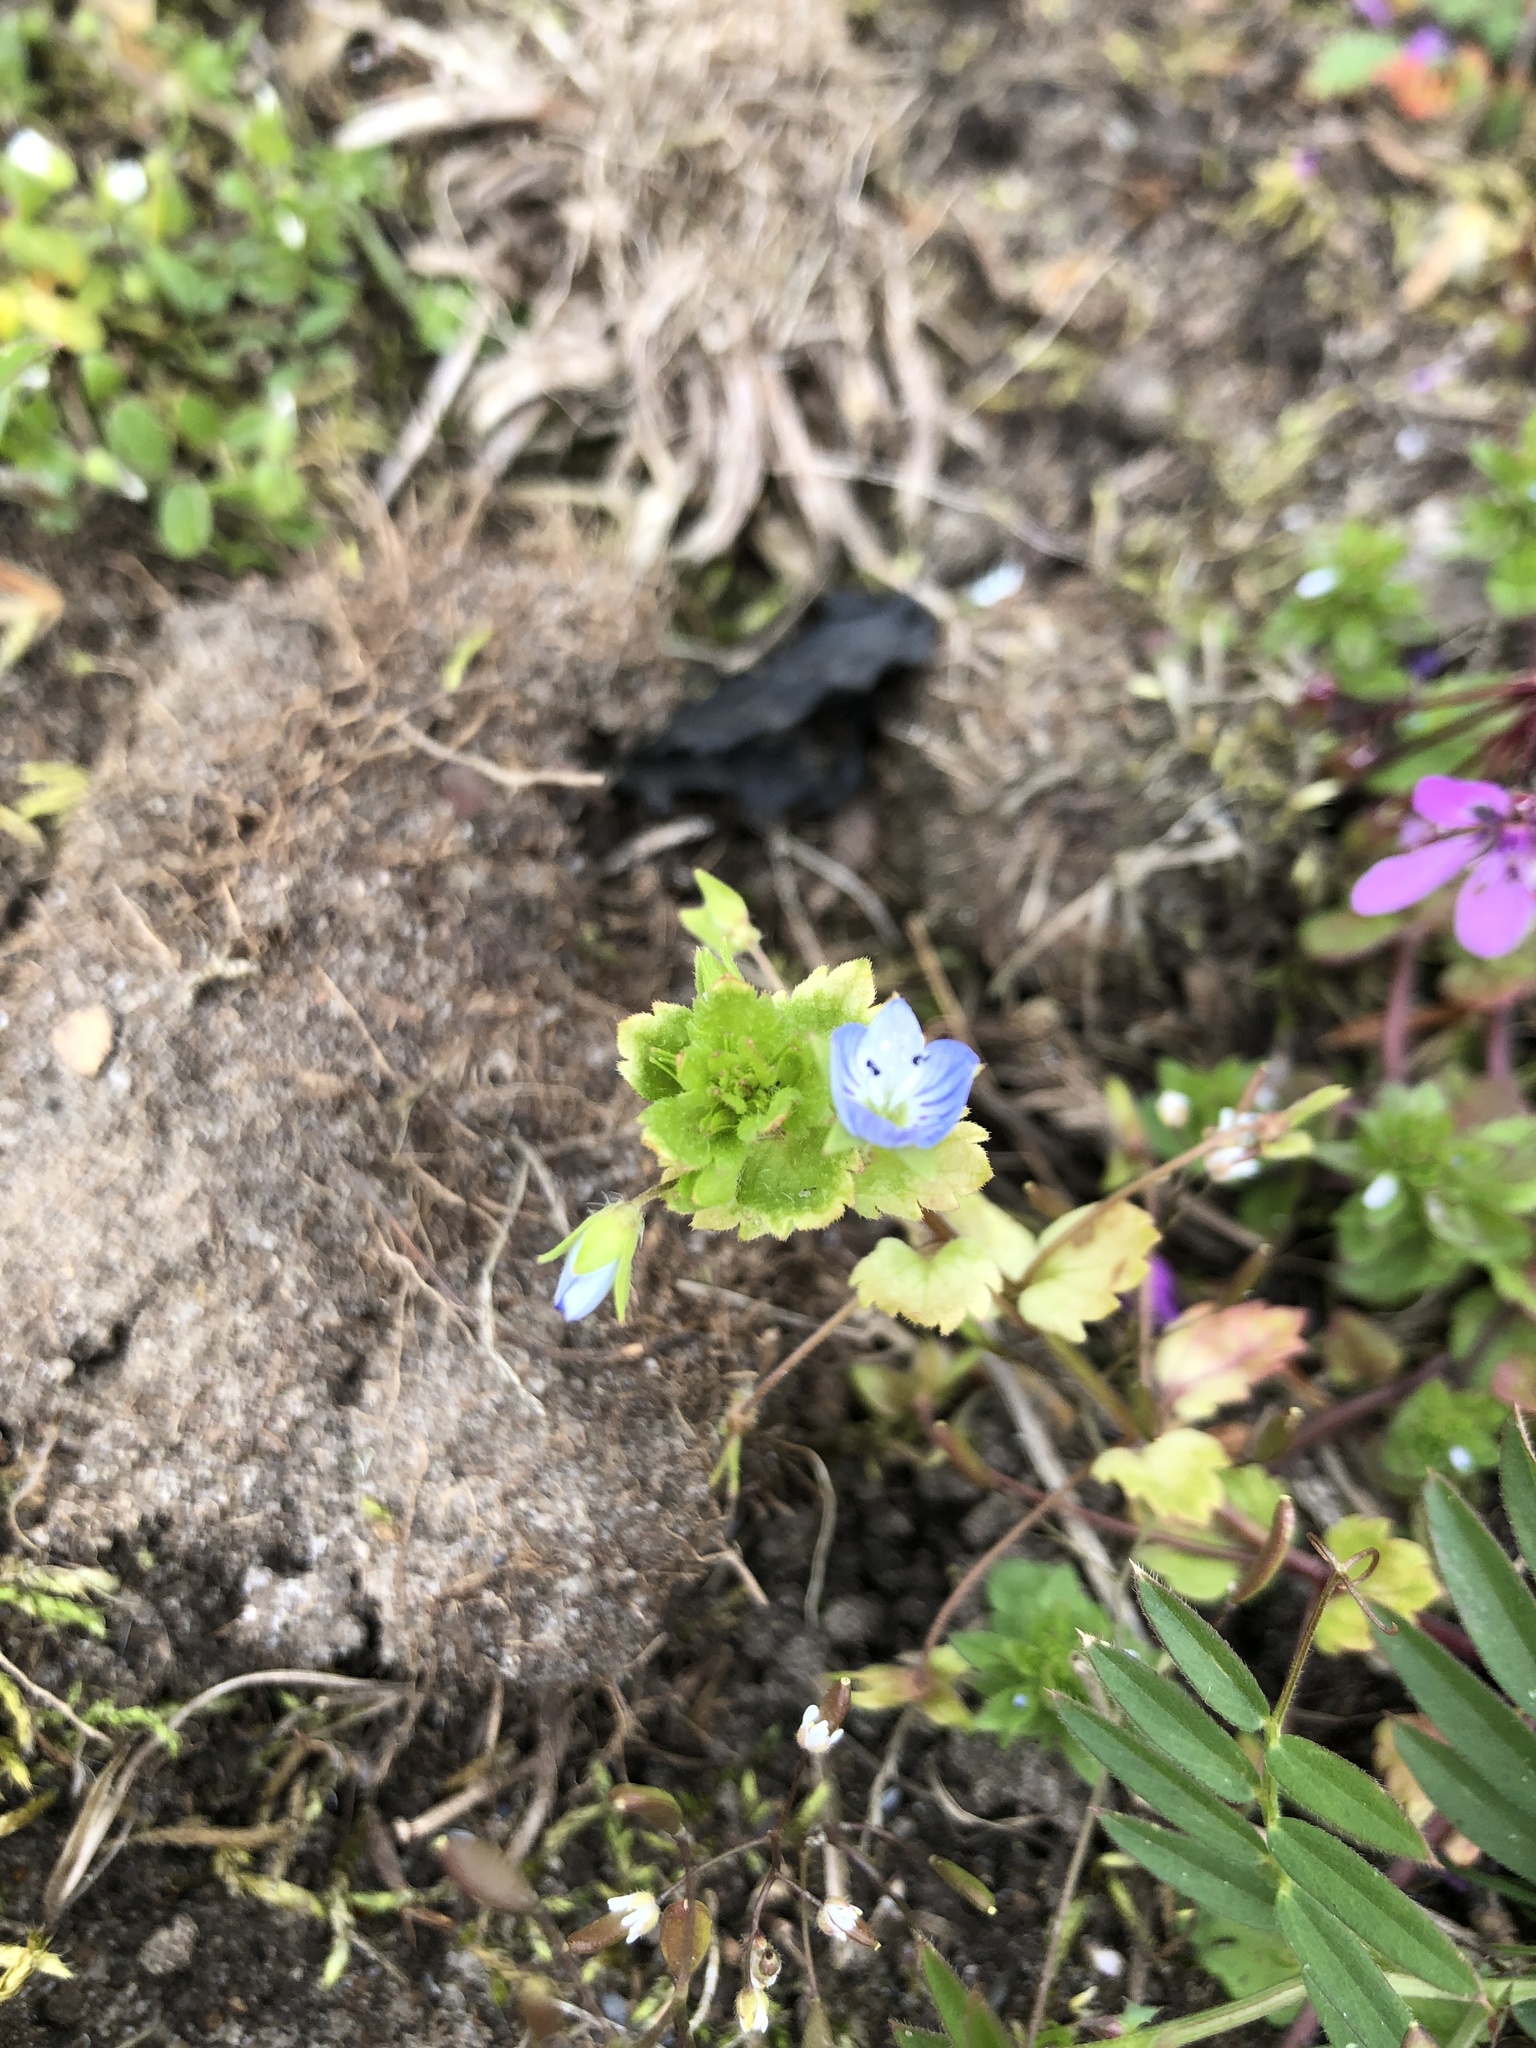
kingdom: Plantae
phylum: Tracheophyta
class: Magnoliopsida
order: Lamiales
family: Plantaginaceae
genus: Veronica
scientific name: Veronica persica
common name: Common field-speedwell
